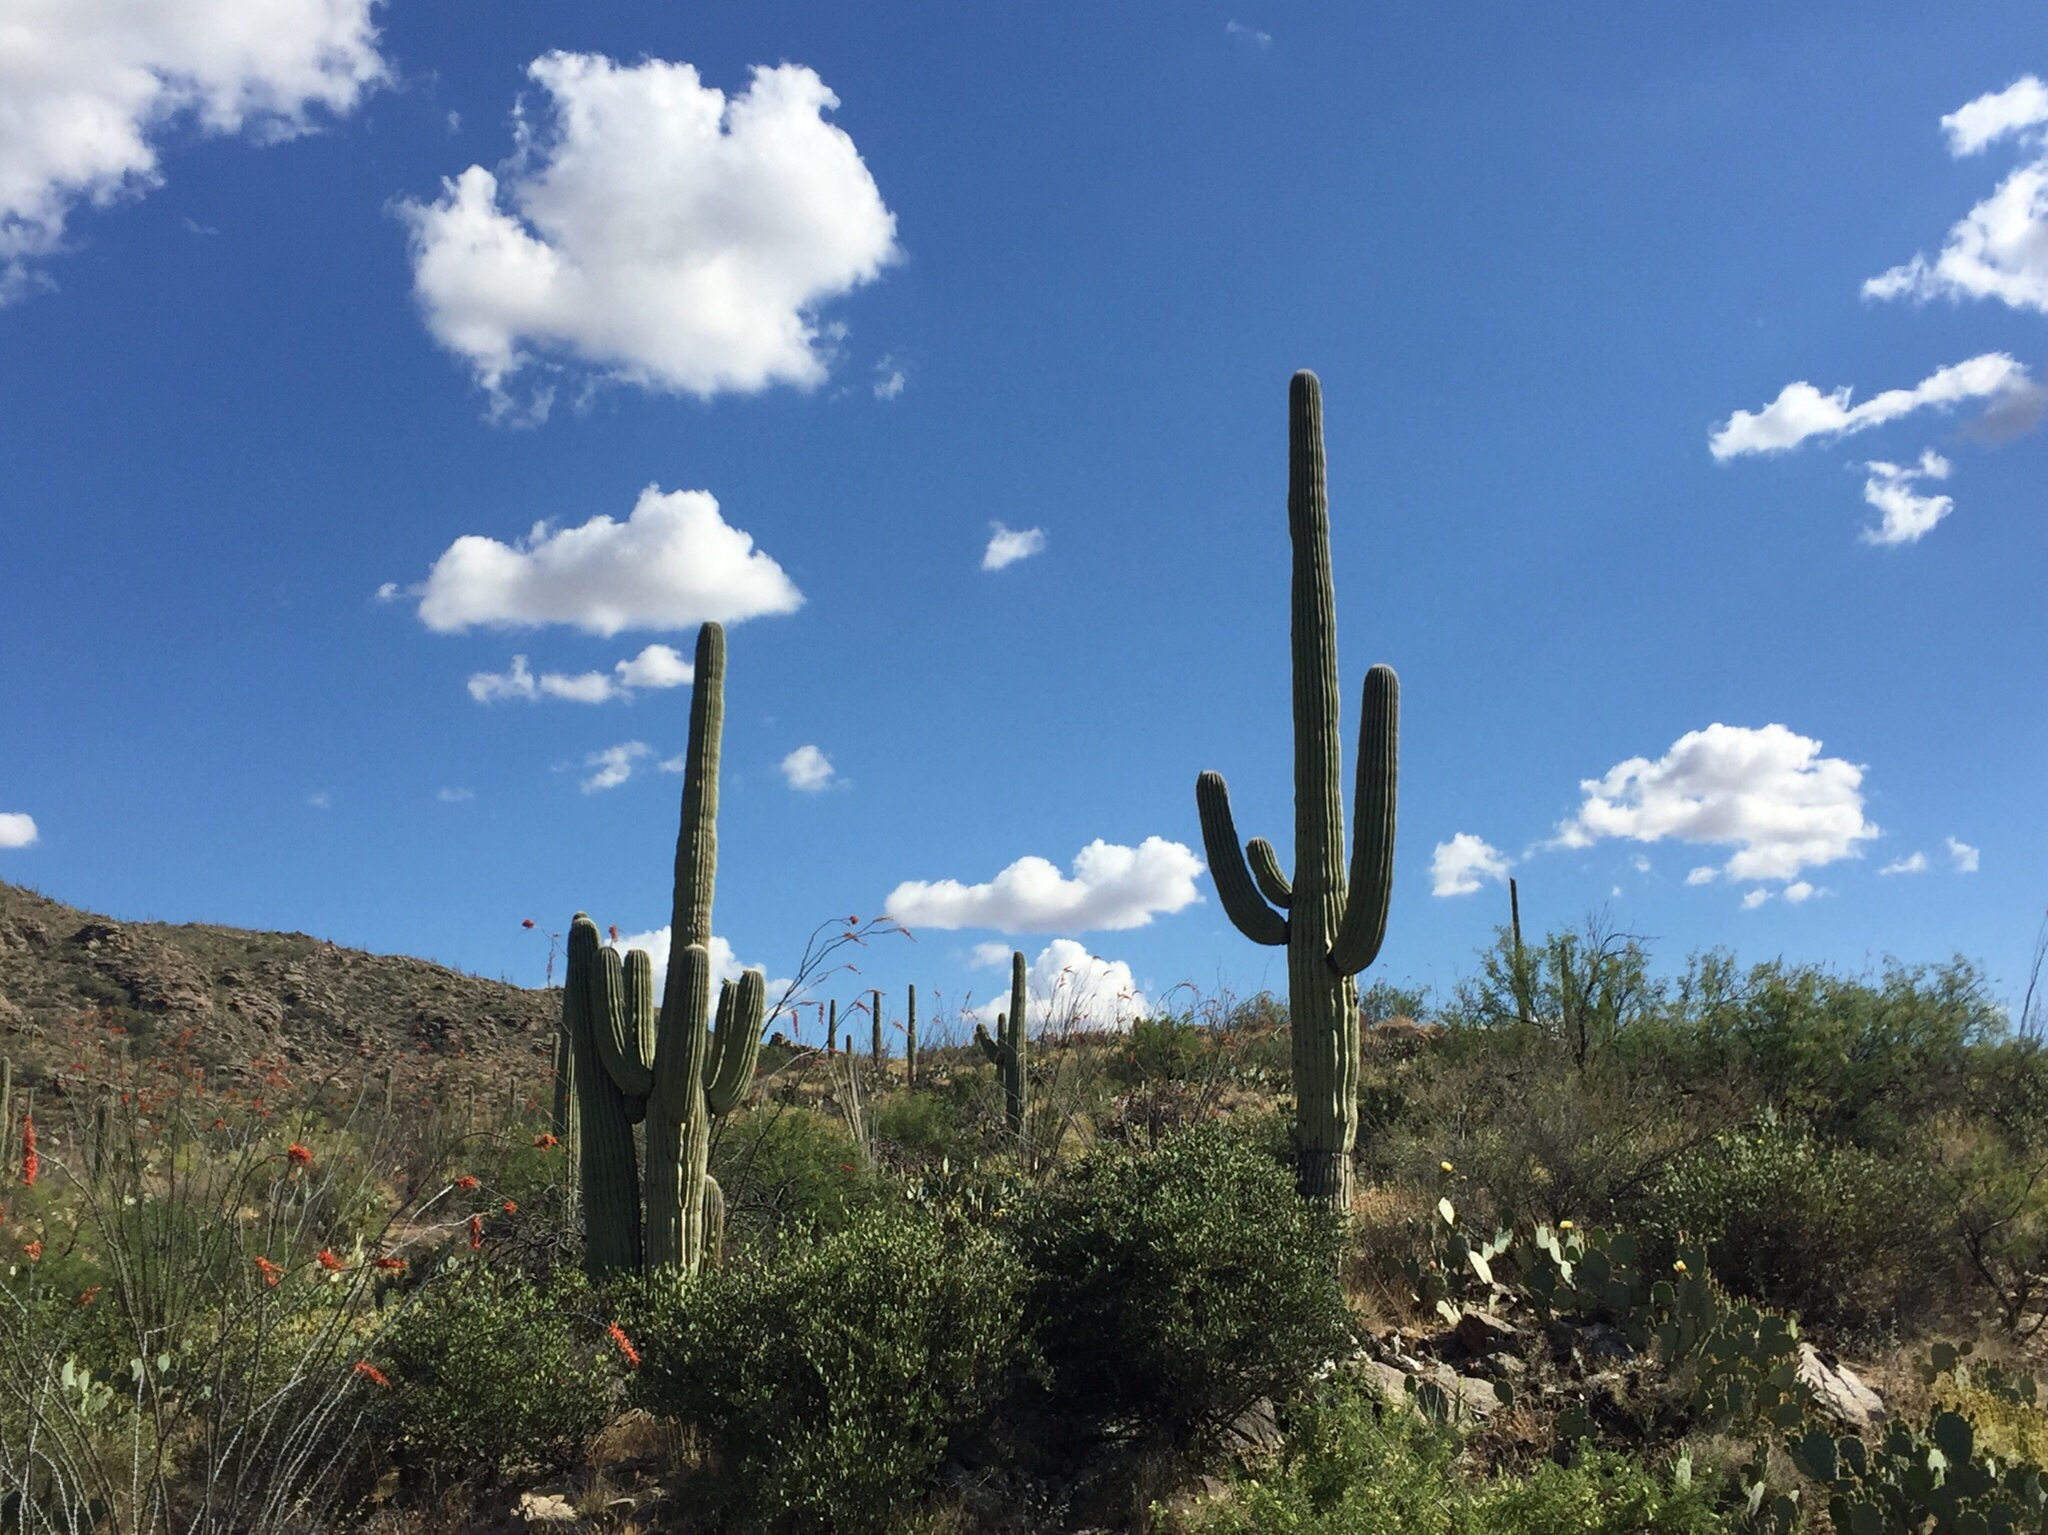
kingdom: Plantae
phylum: Tracheophyta
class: Magnoliopsida
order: Caryophyllales
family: Cactaceae
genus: Carnegiea
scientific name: Carnegiea gigantea
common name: Saguaro
